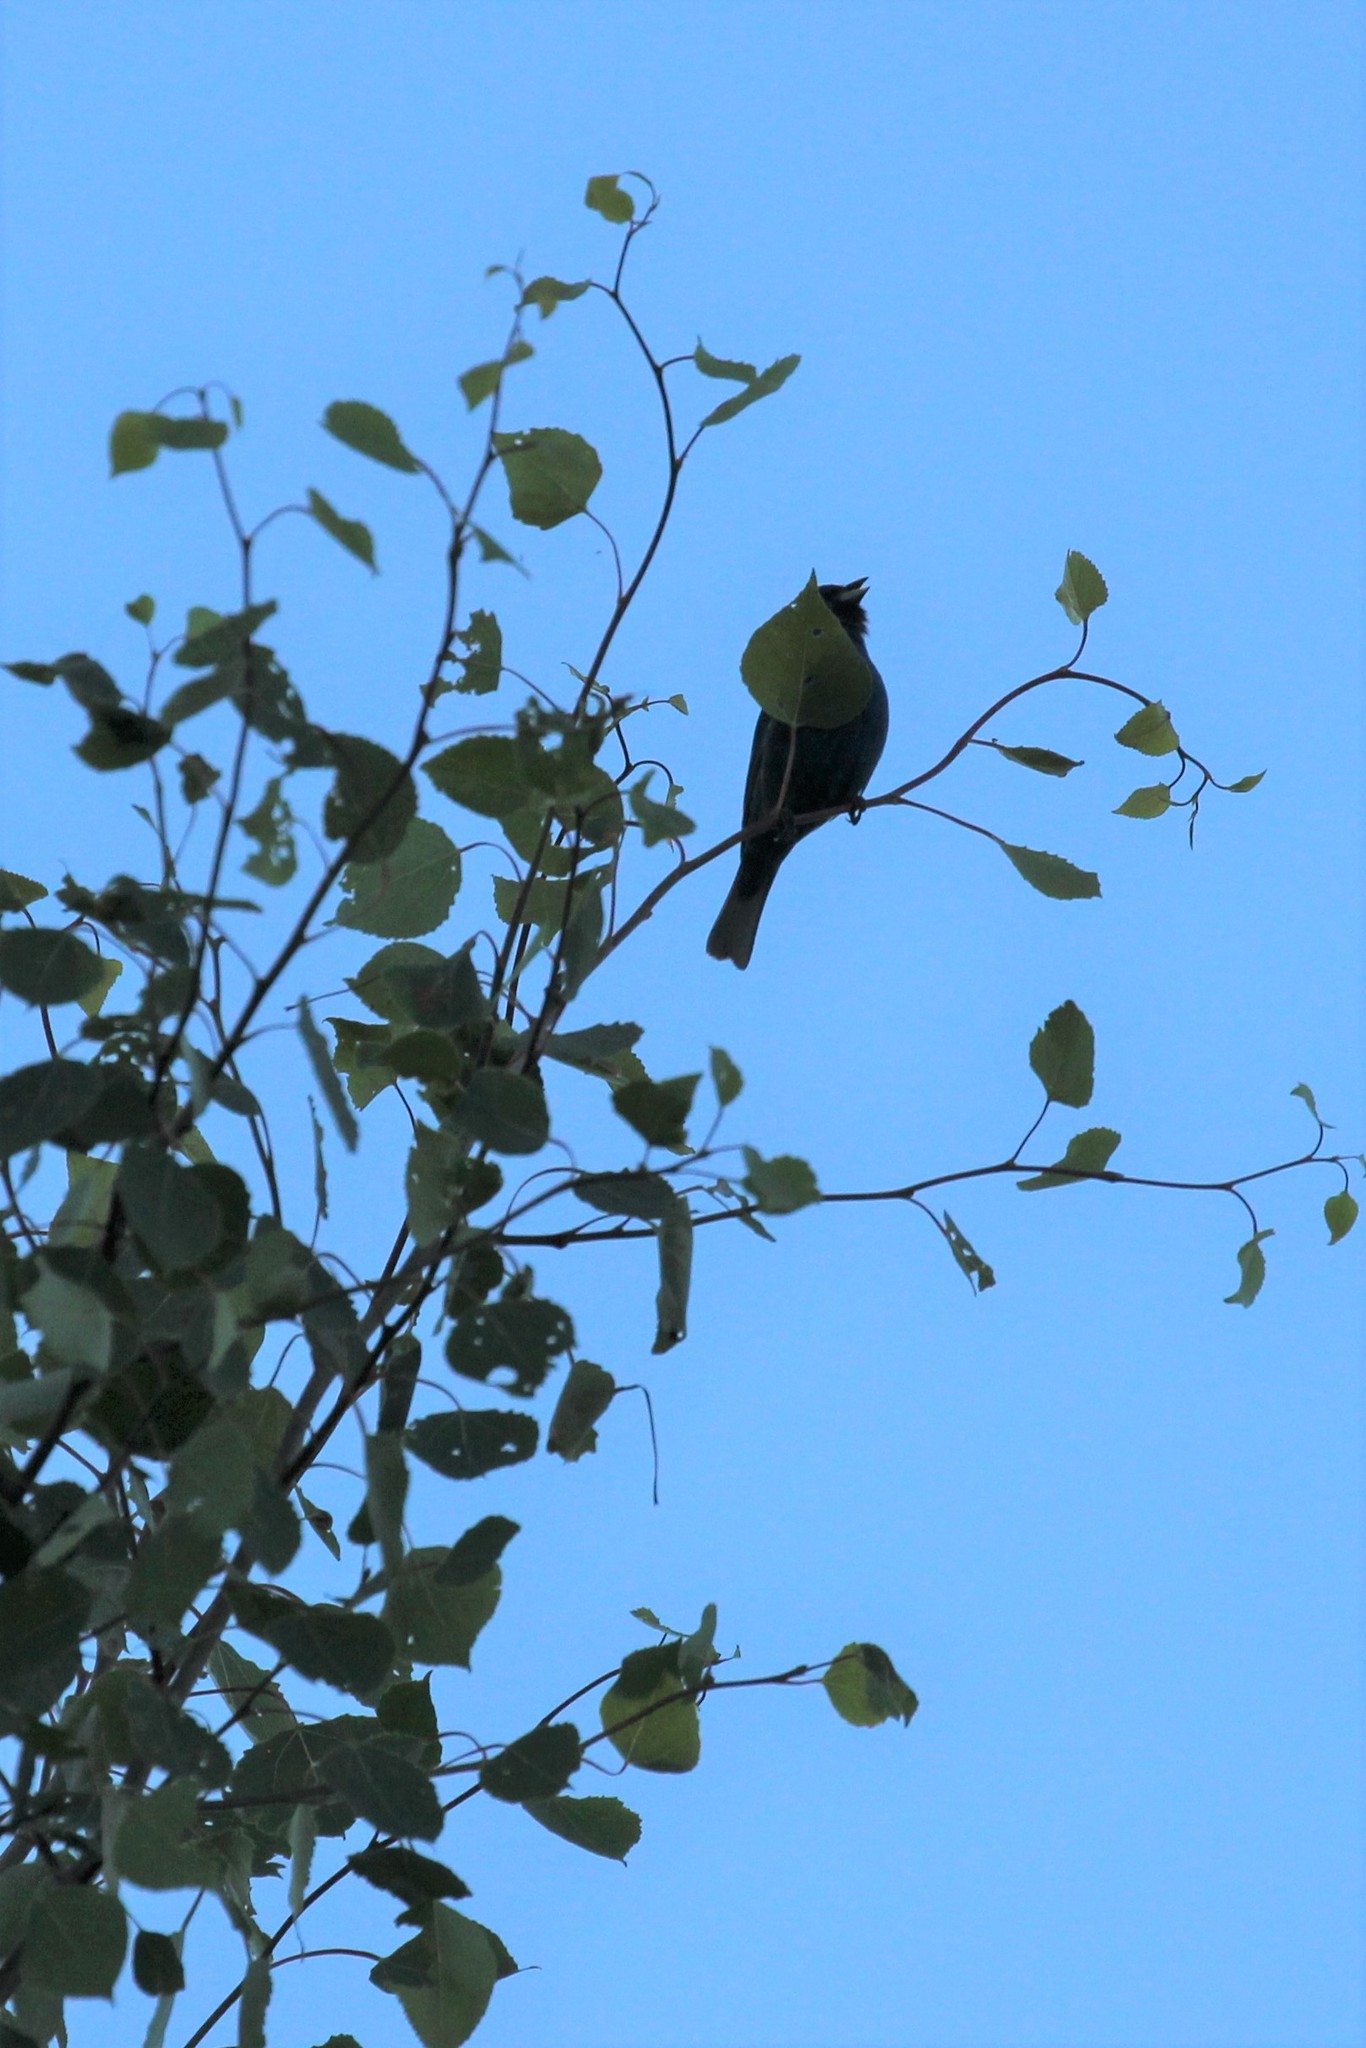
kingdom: Animalia
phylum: Chordata
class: Aves
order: Passeriformes
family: Cardinalidae
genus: Passerina
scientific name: Passerina cyanea
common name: Indigo bunting
